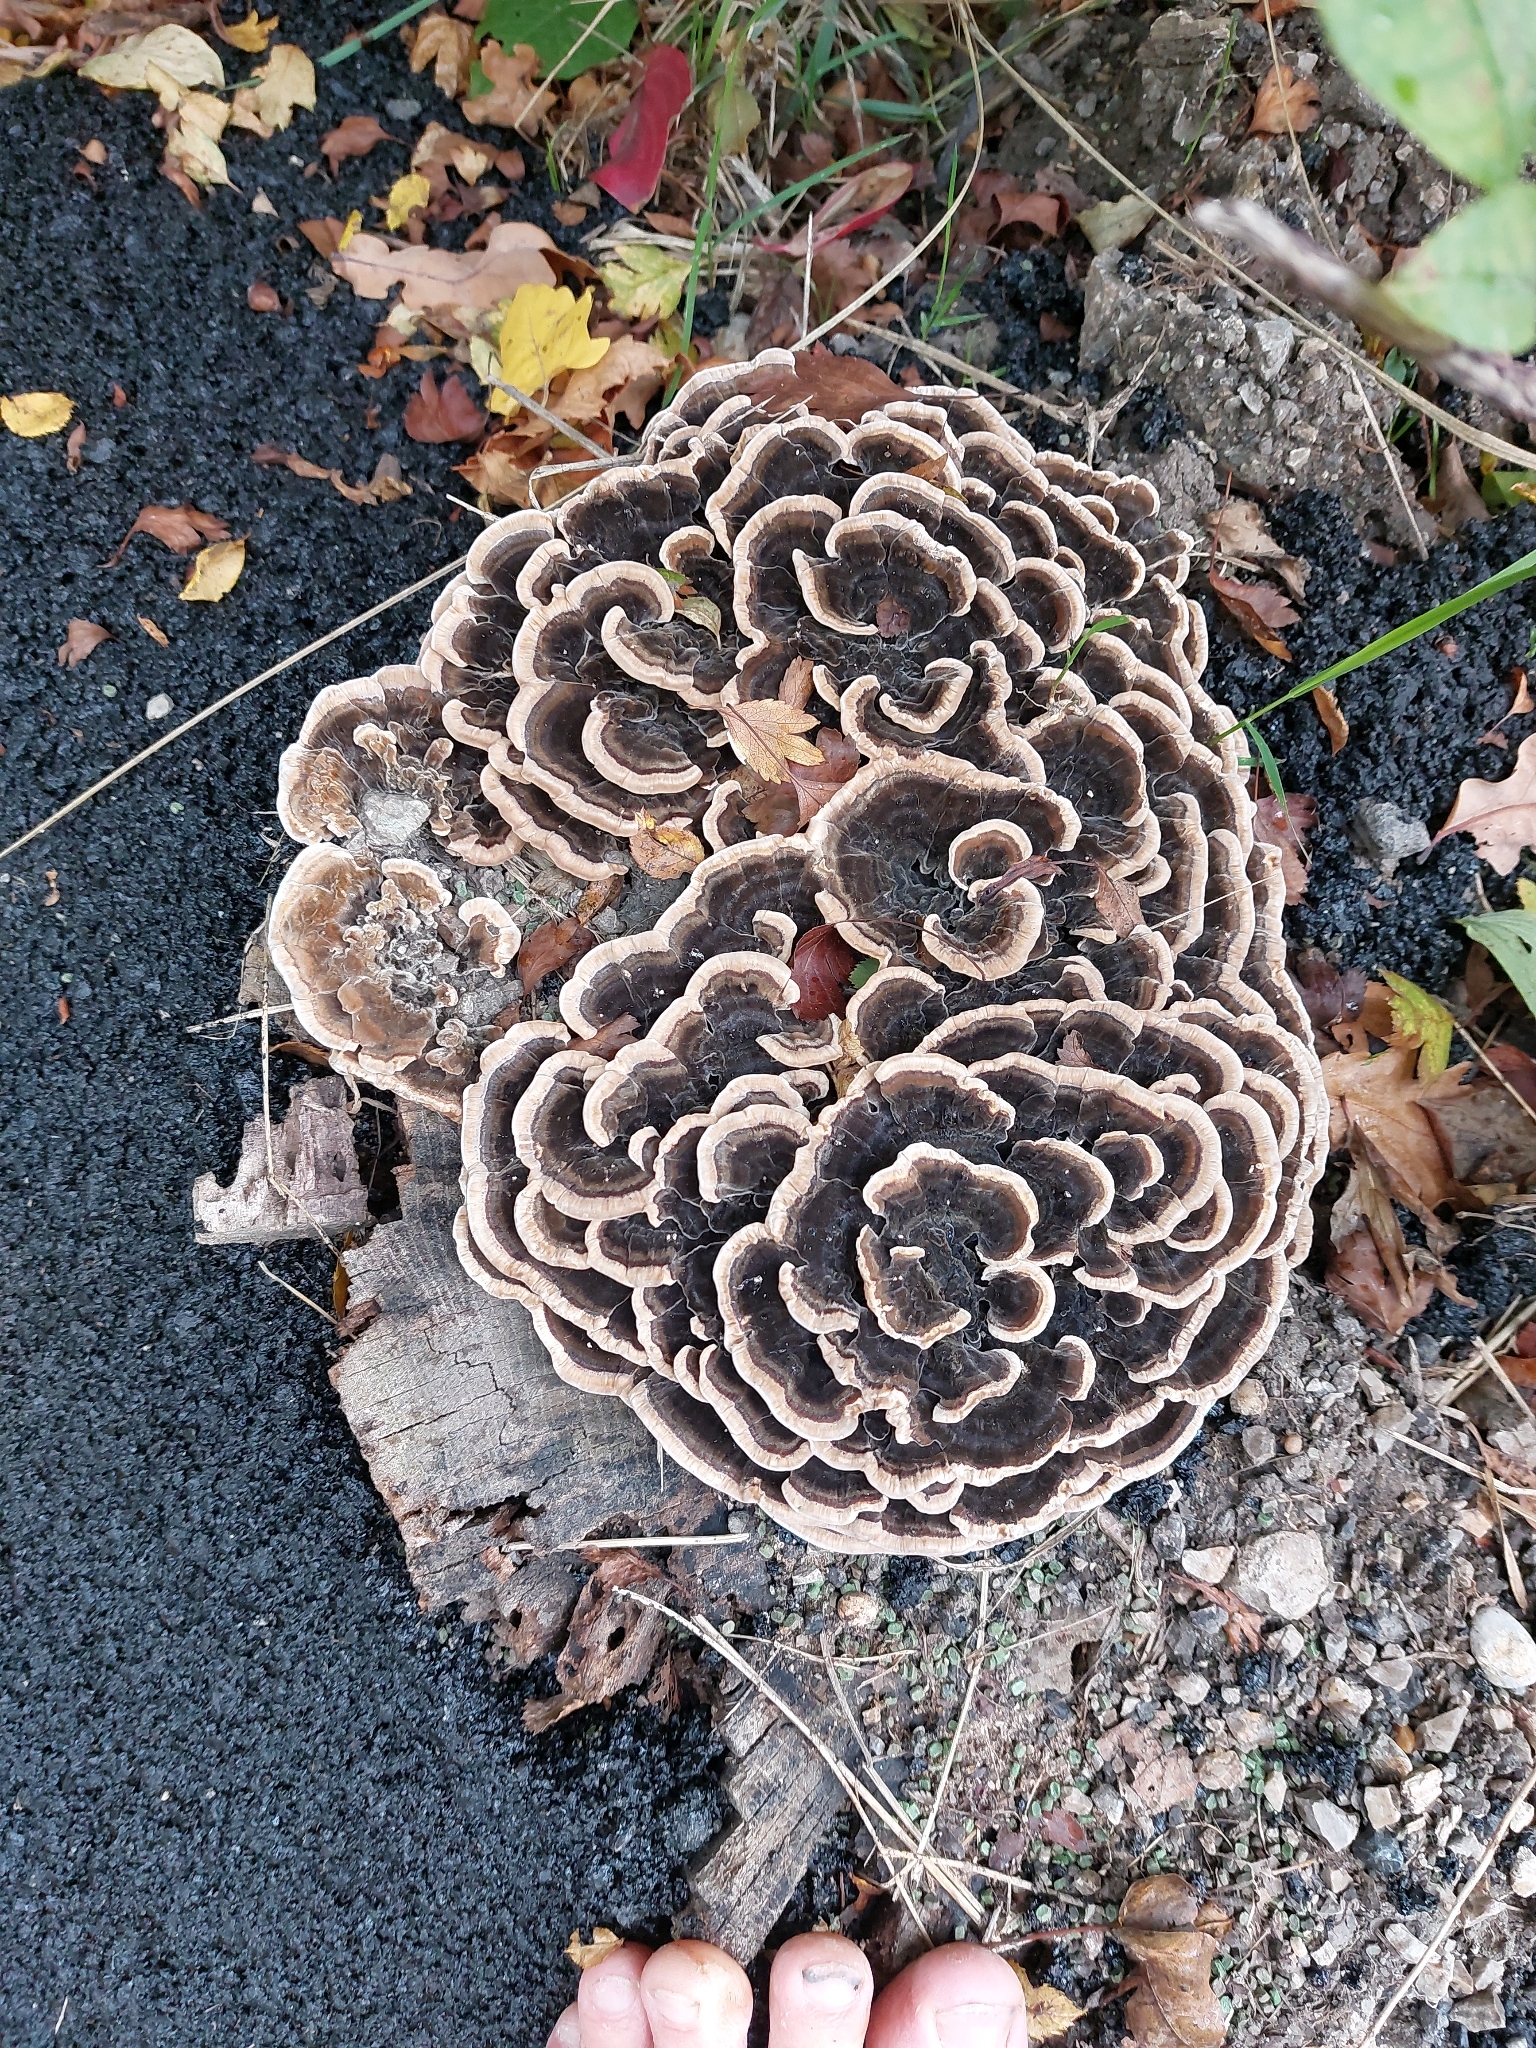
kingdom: Fungi
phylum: Basidiomycota
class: Agaricomycetes
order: Polyporales
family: Polyporaceae
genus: Trametes
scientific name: Trametes versicolor
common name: Turkeytail
